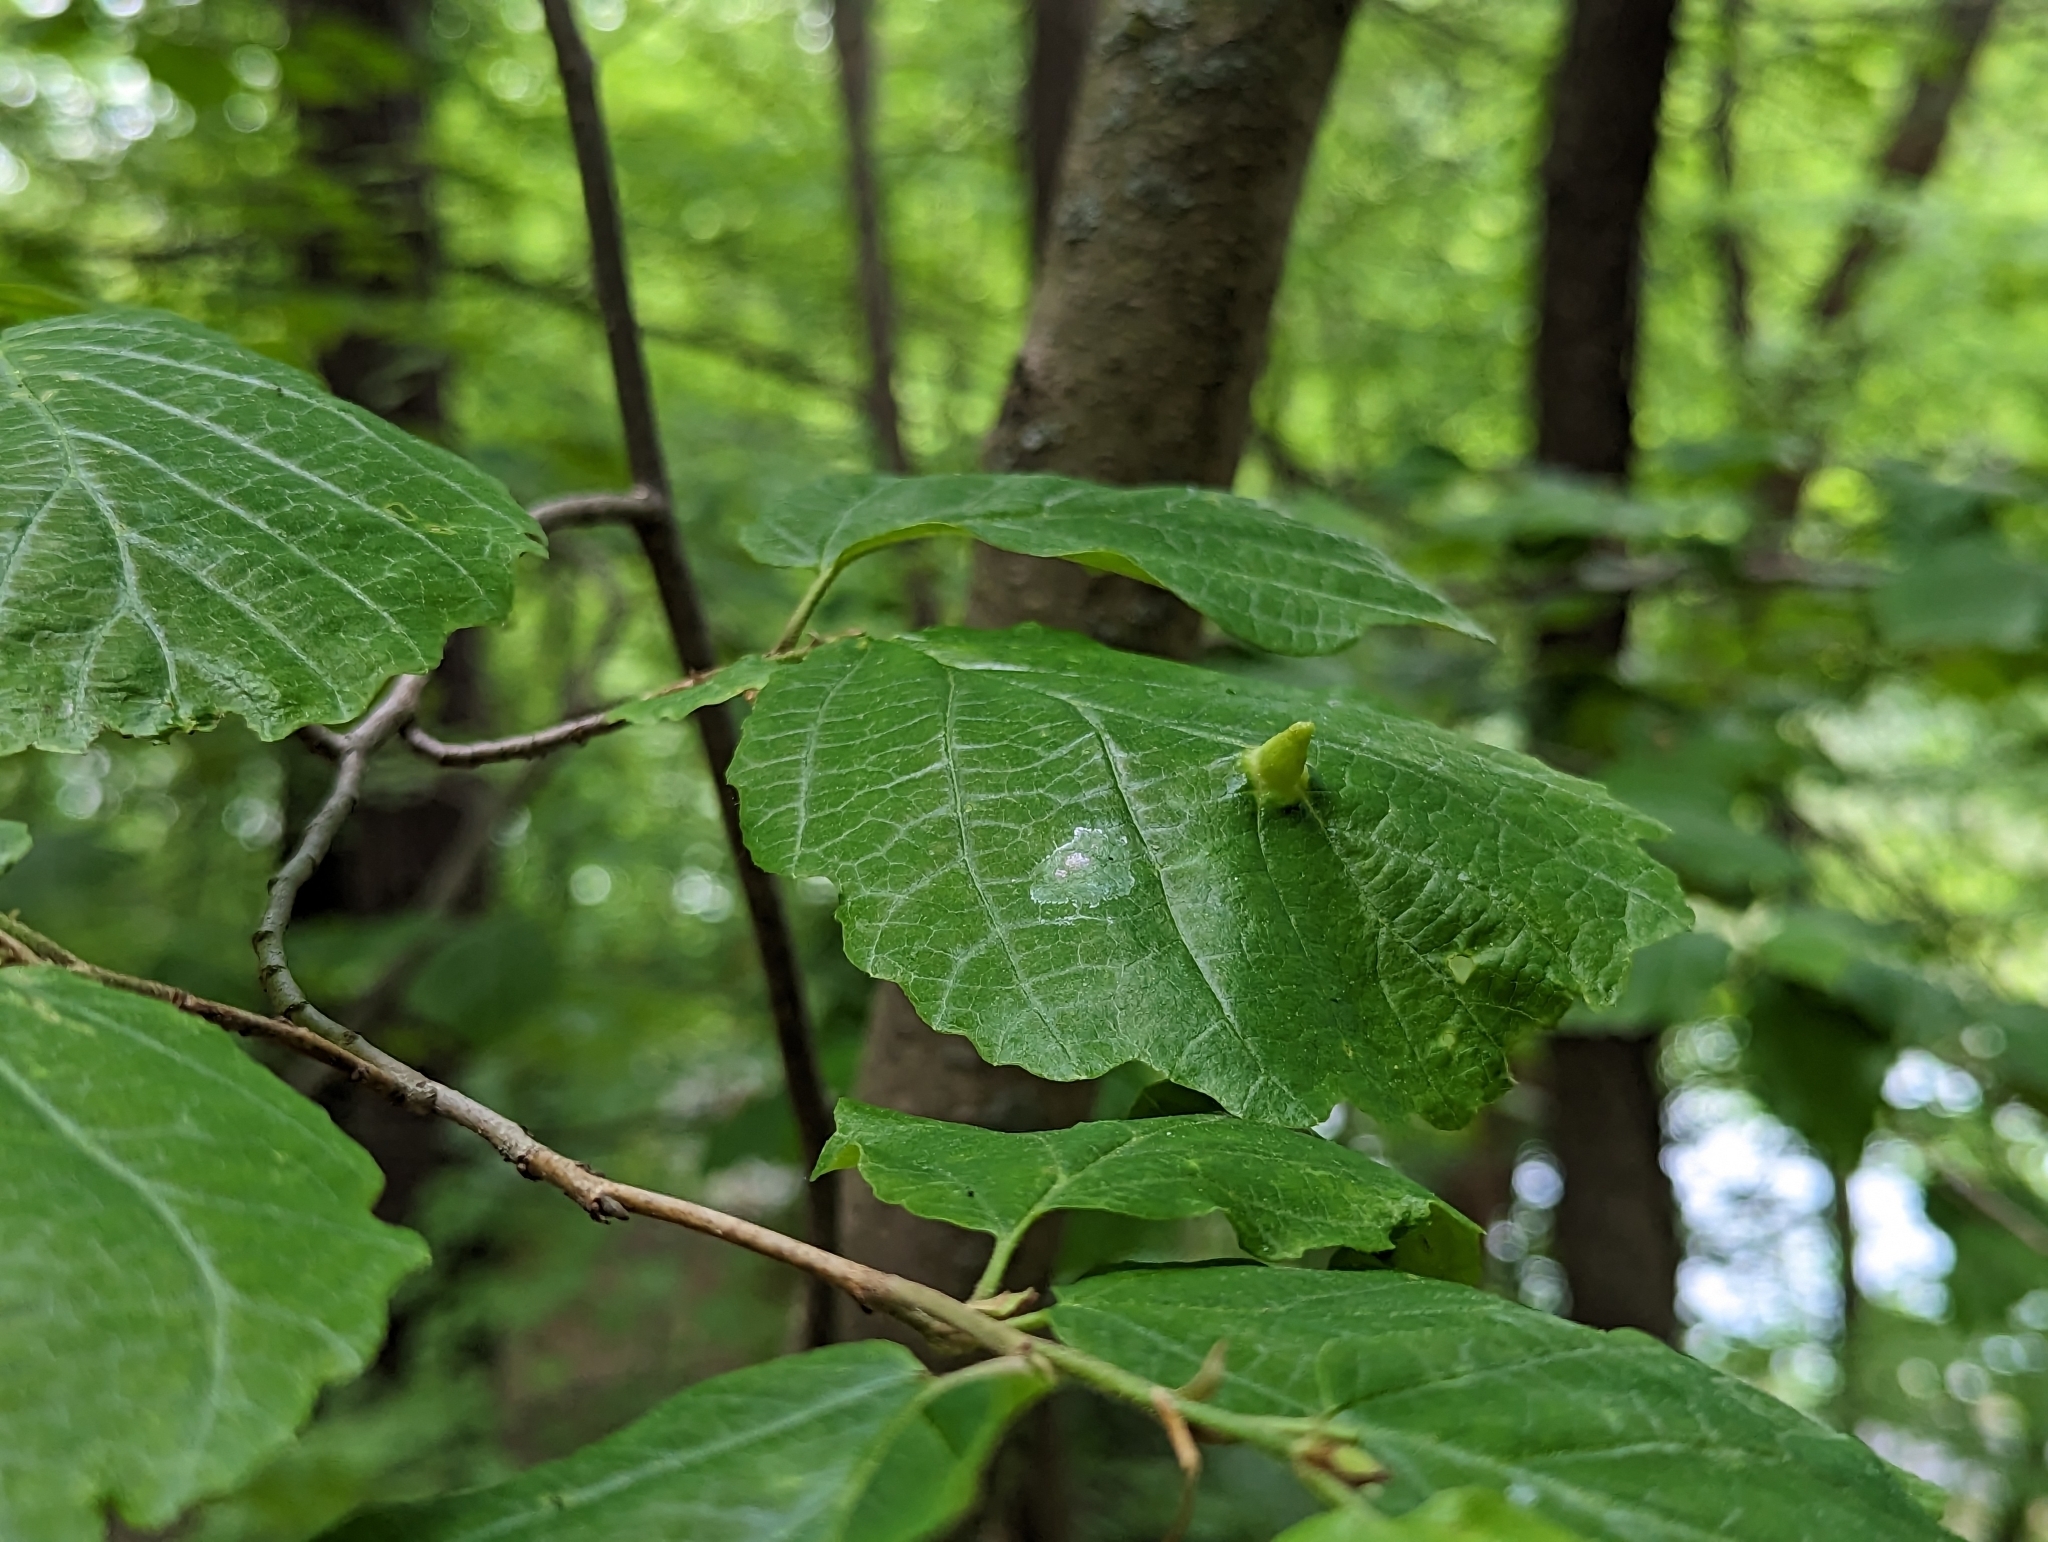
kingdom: Animalia
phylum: Arthropoda
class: Insecta
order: Hemiptera
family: Aphididae
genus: Hormaphis
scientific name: Hormaphis hamamelidis
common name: Witch-hazel cone gall aphid
